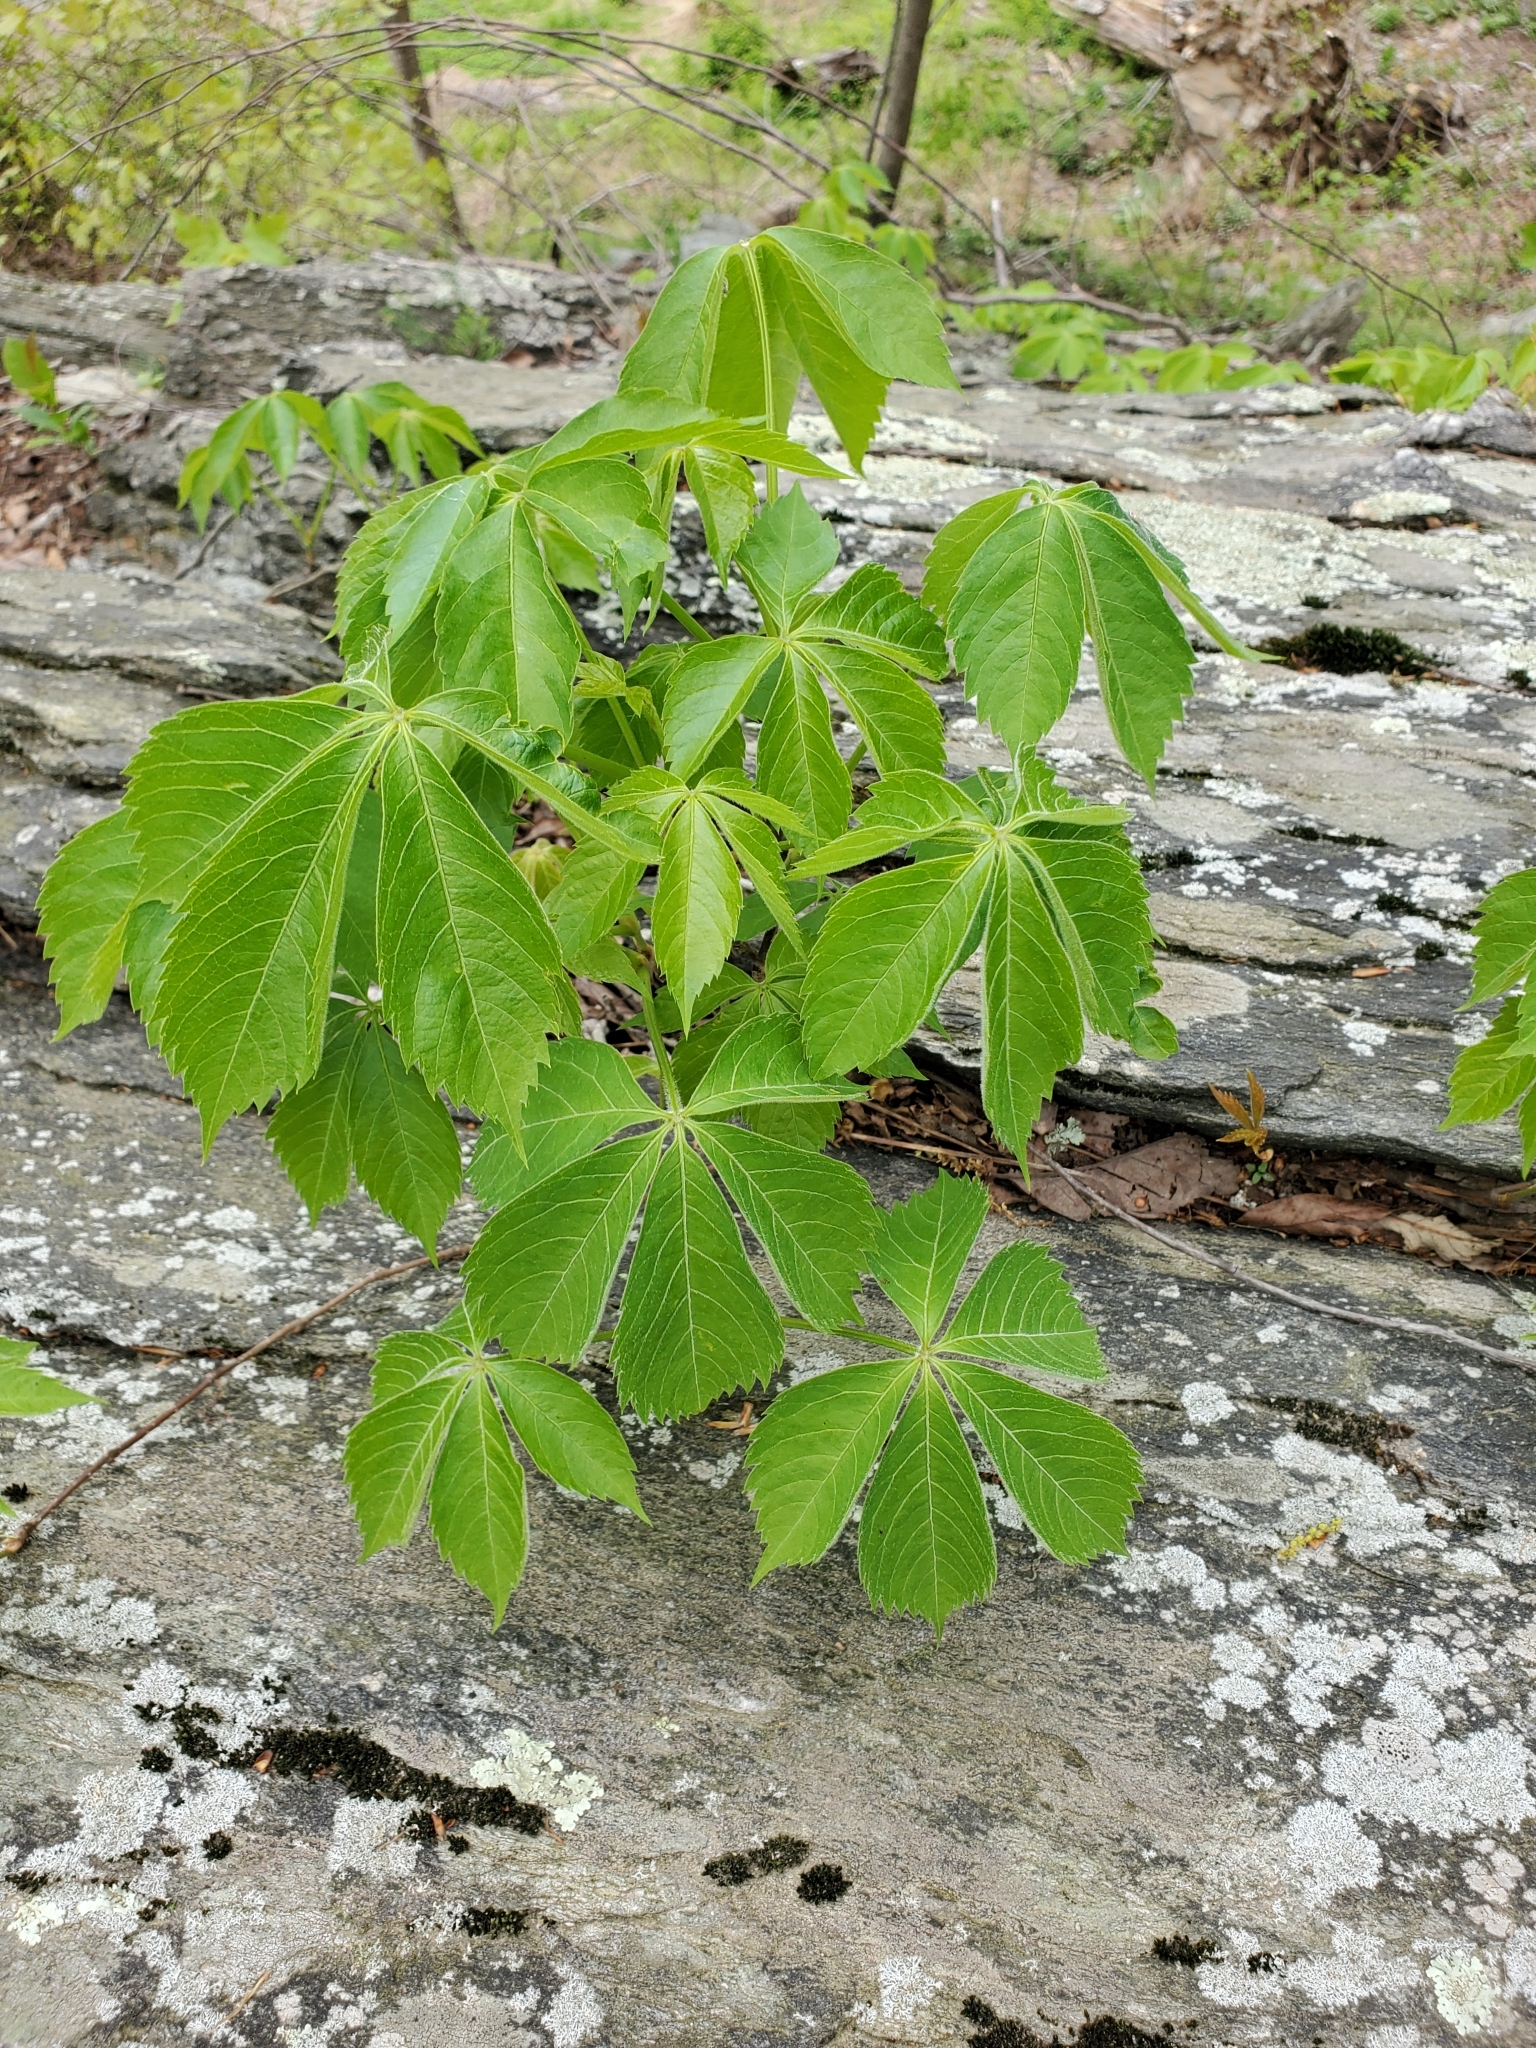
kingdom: Plantae
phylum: Tracheophyta
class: Magnoliopsida
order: Vitales
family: Vitaceae
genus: Parthenocissus
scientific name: Parthenocissus quinquefolia
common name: Virginia-creeper
